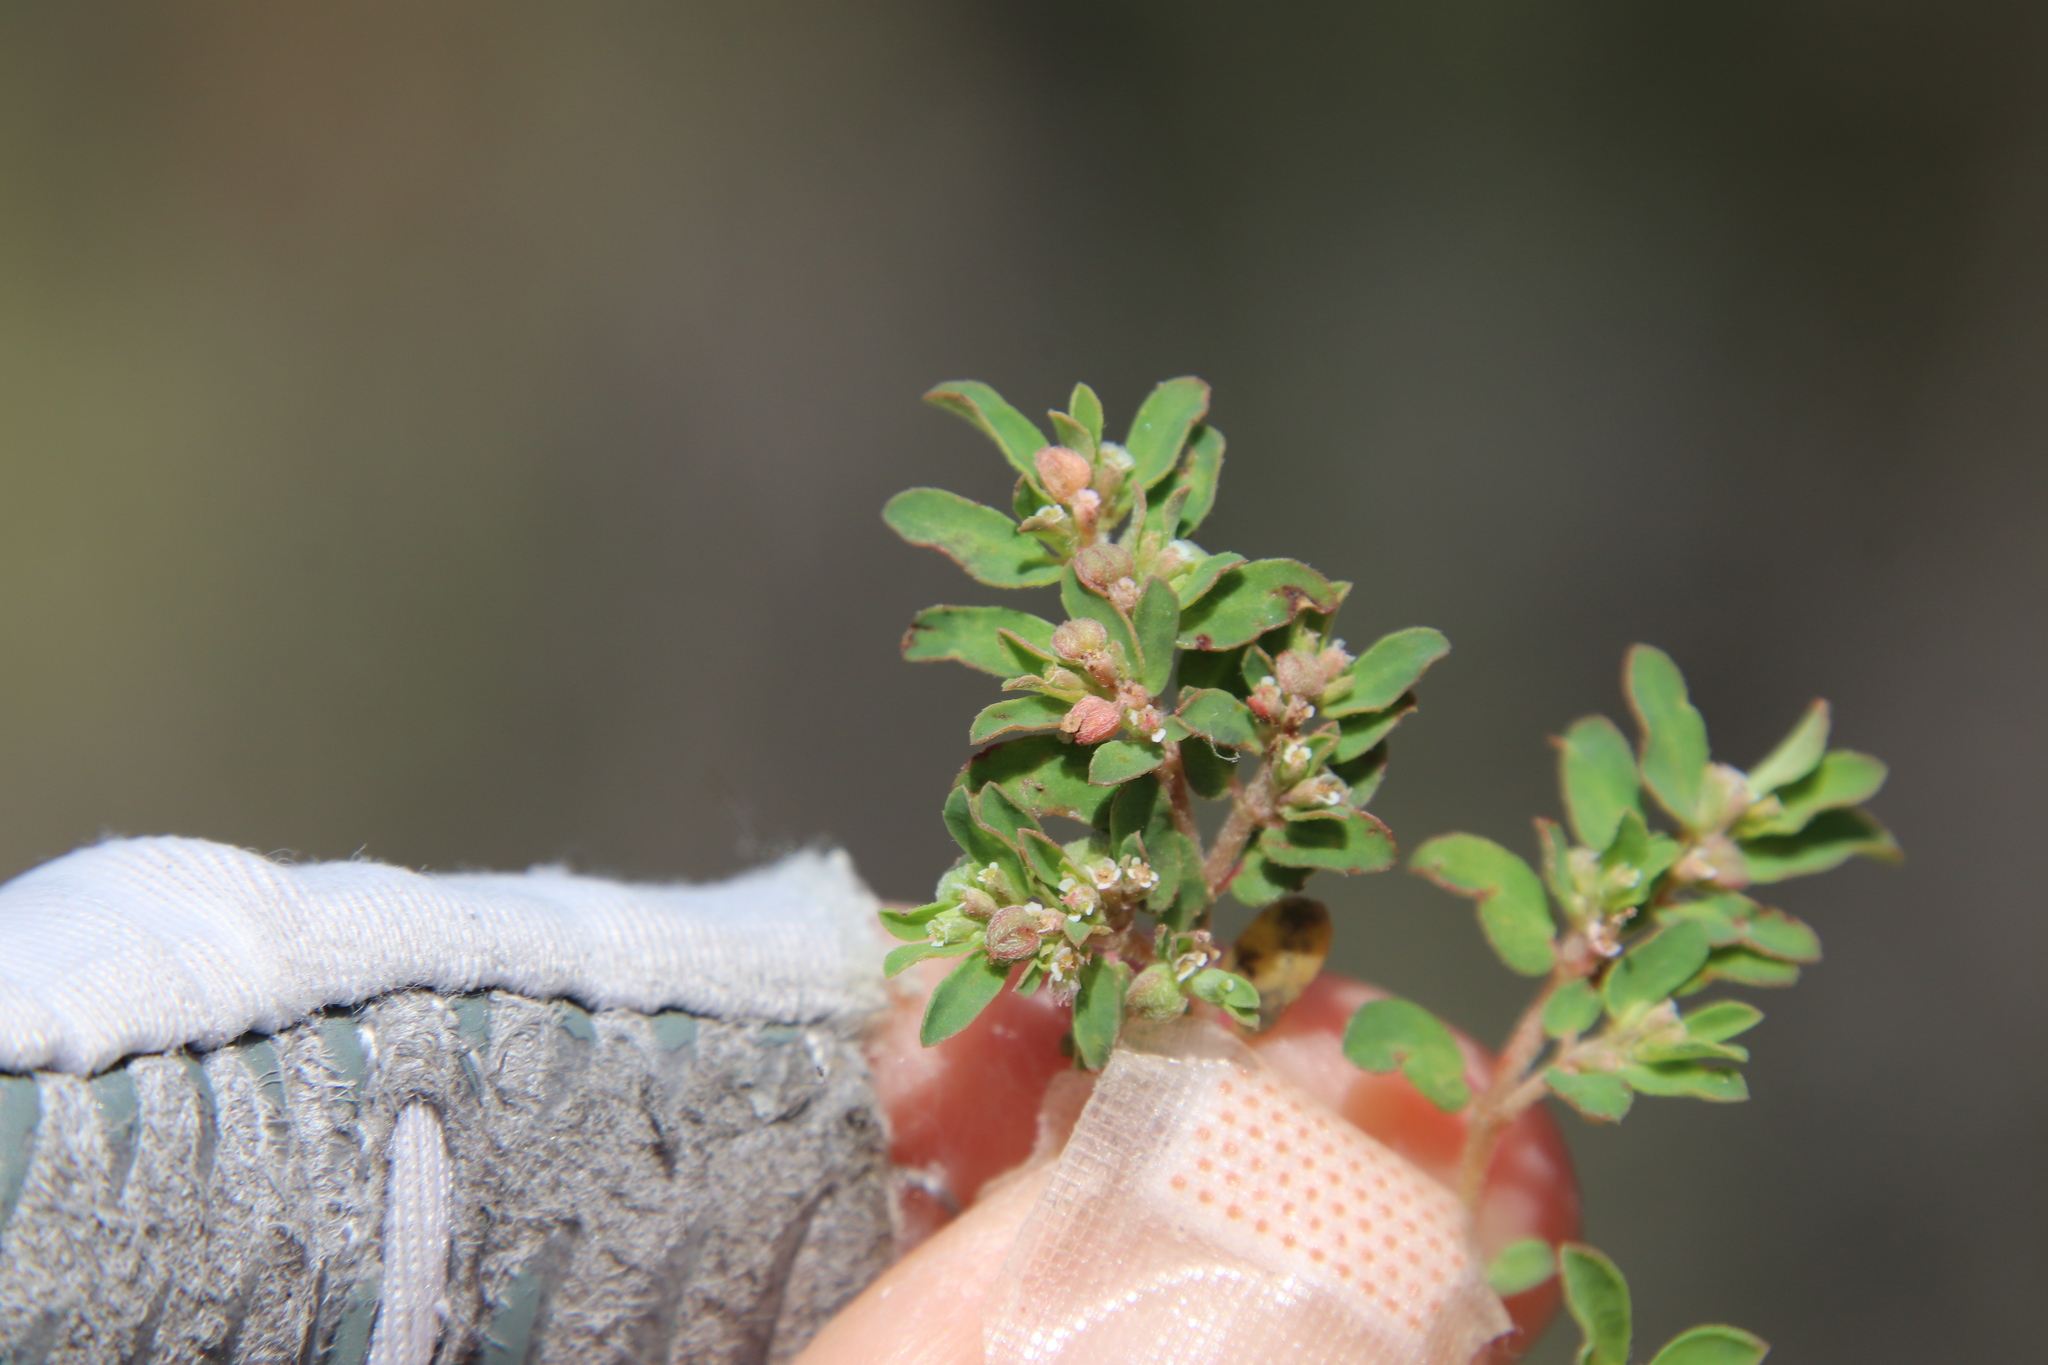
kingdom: Plantae
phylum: Tracheophyta
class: Magnoliopsida
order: Malpighiales
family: Euphorbiaceae
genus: Euphorbia
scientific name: Euphorbia maculata
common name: Spotted spurge
